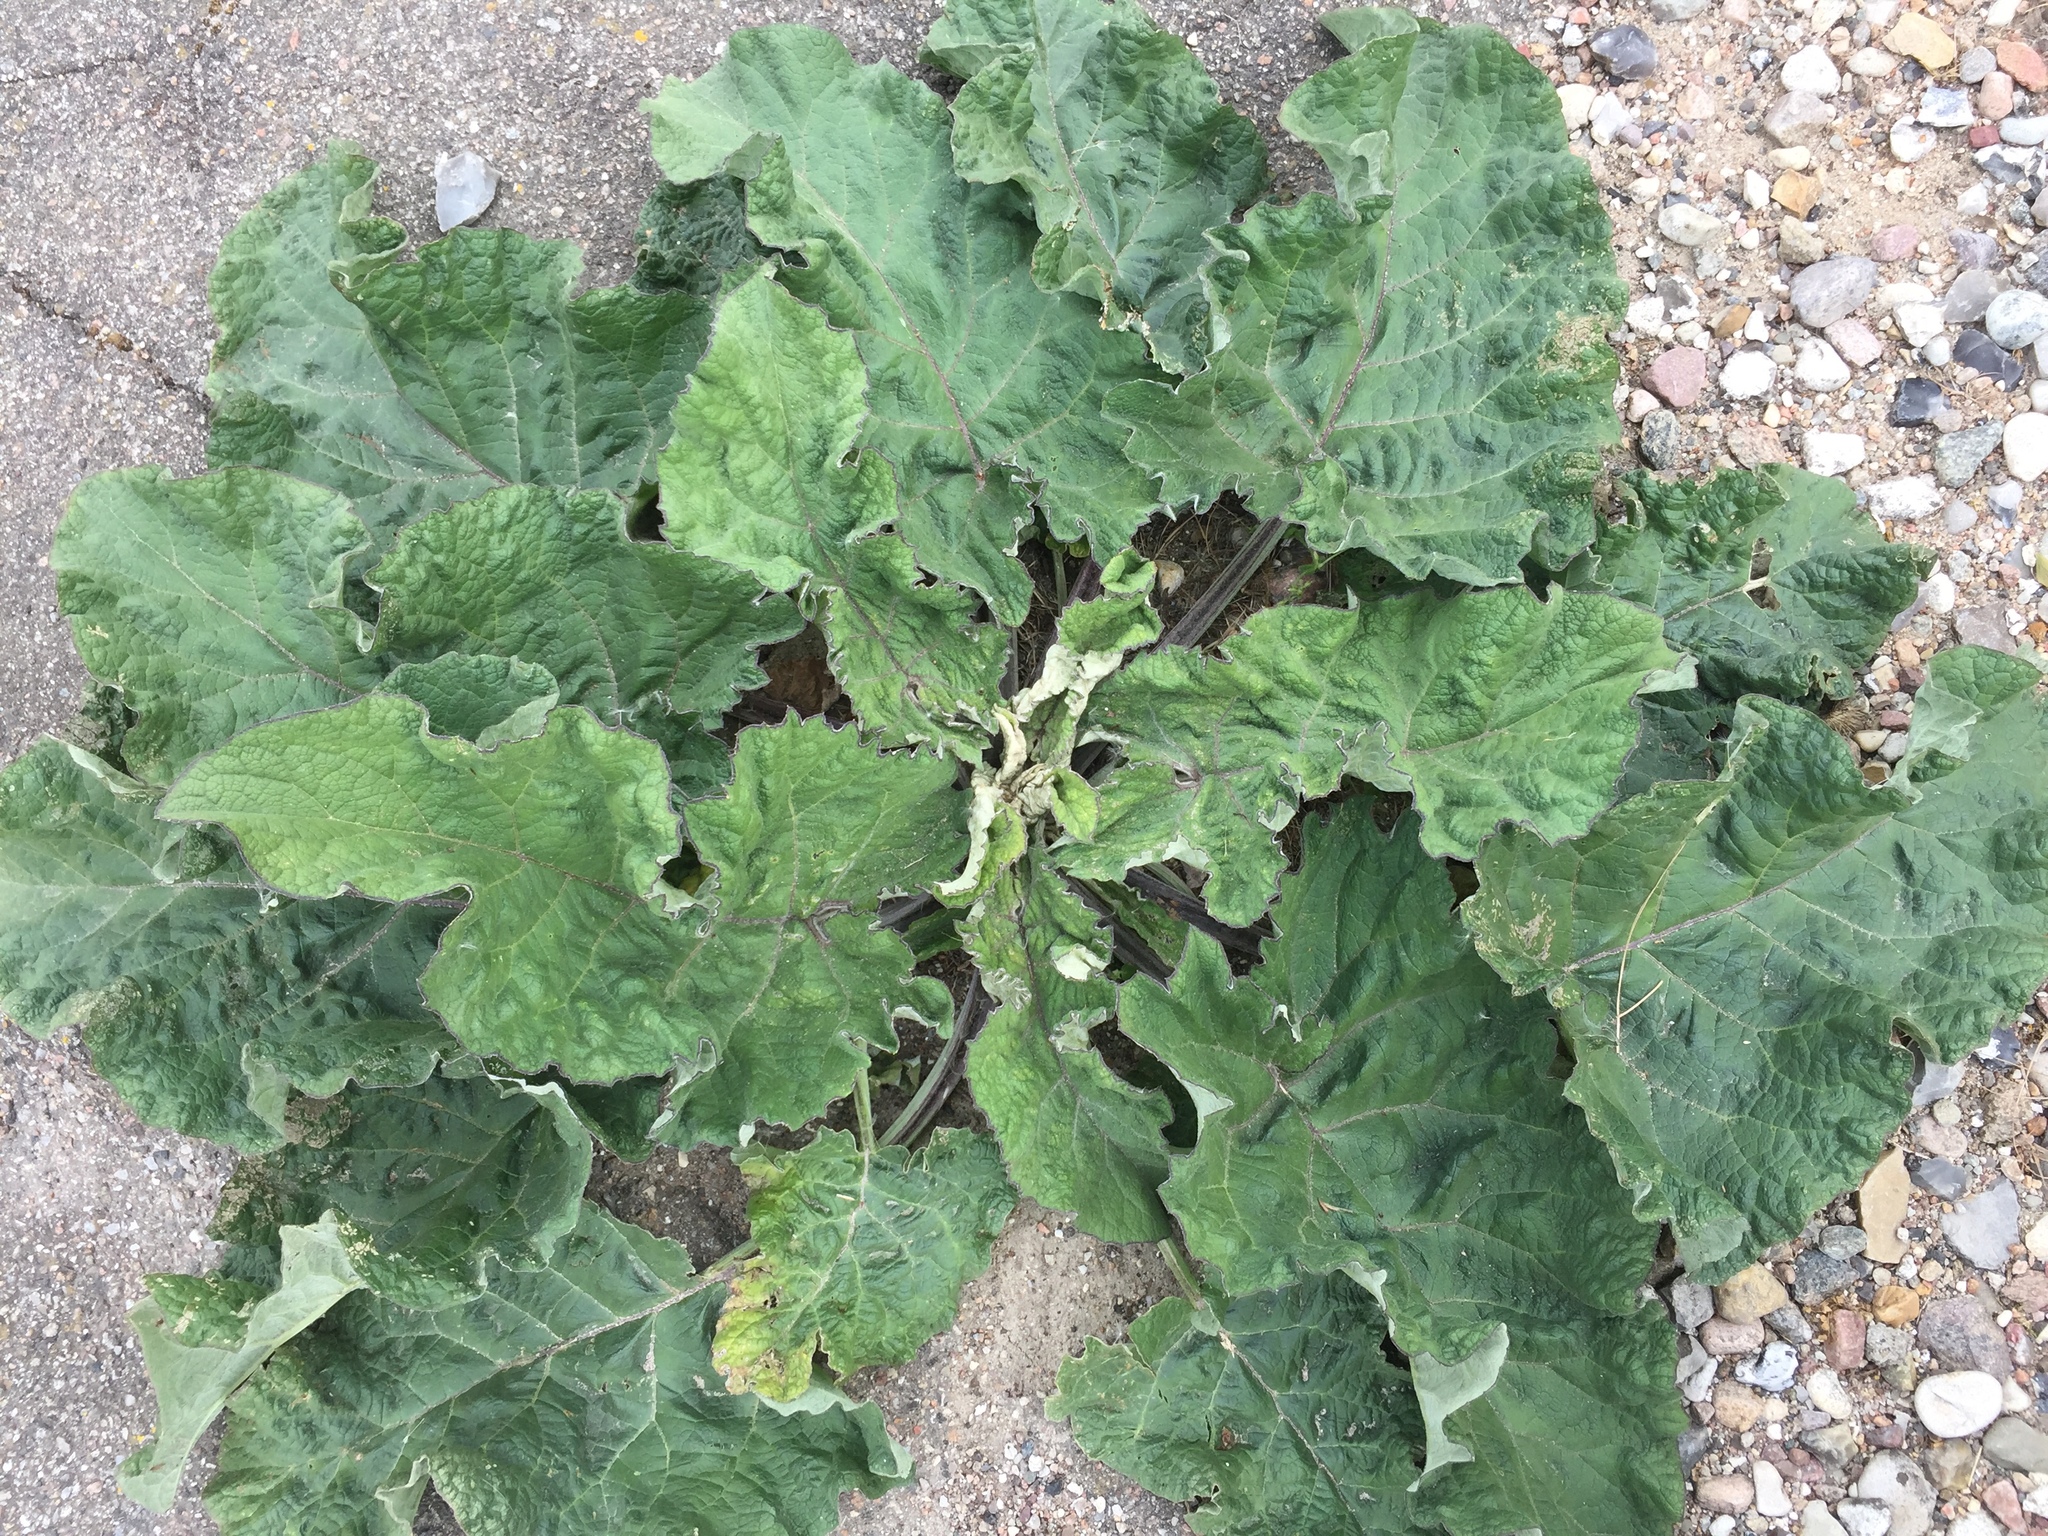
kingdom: Plantae
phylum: Tracheophyta
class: Magnoliopsida
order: Asterales
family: Asteraceae
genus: Arctium
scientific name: Arctium
